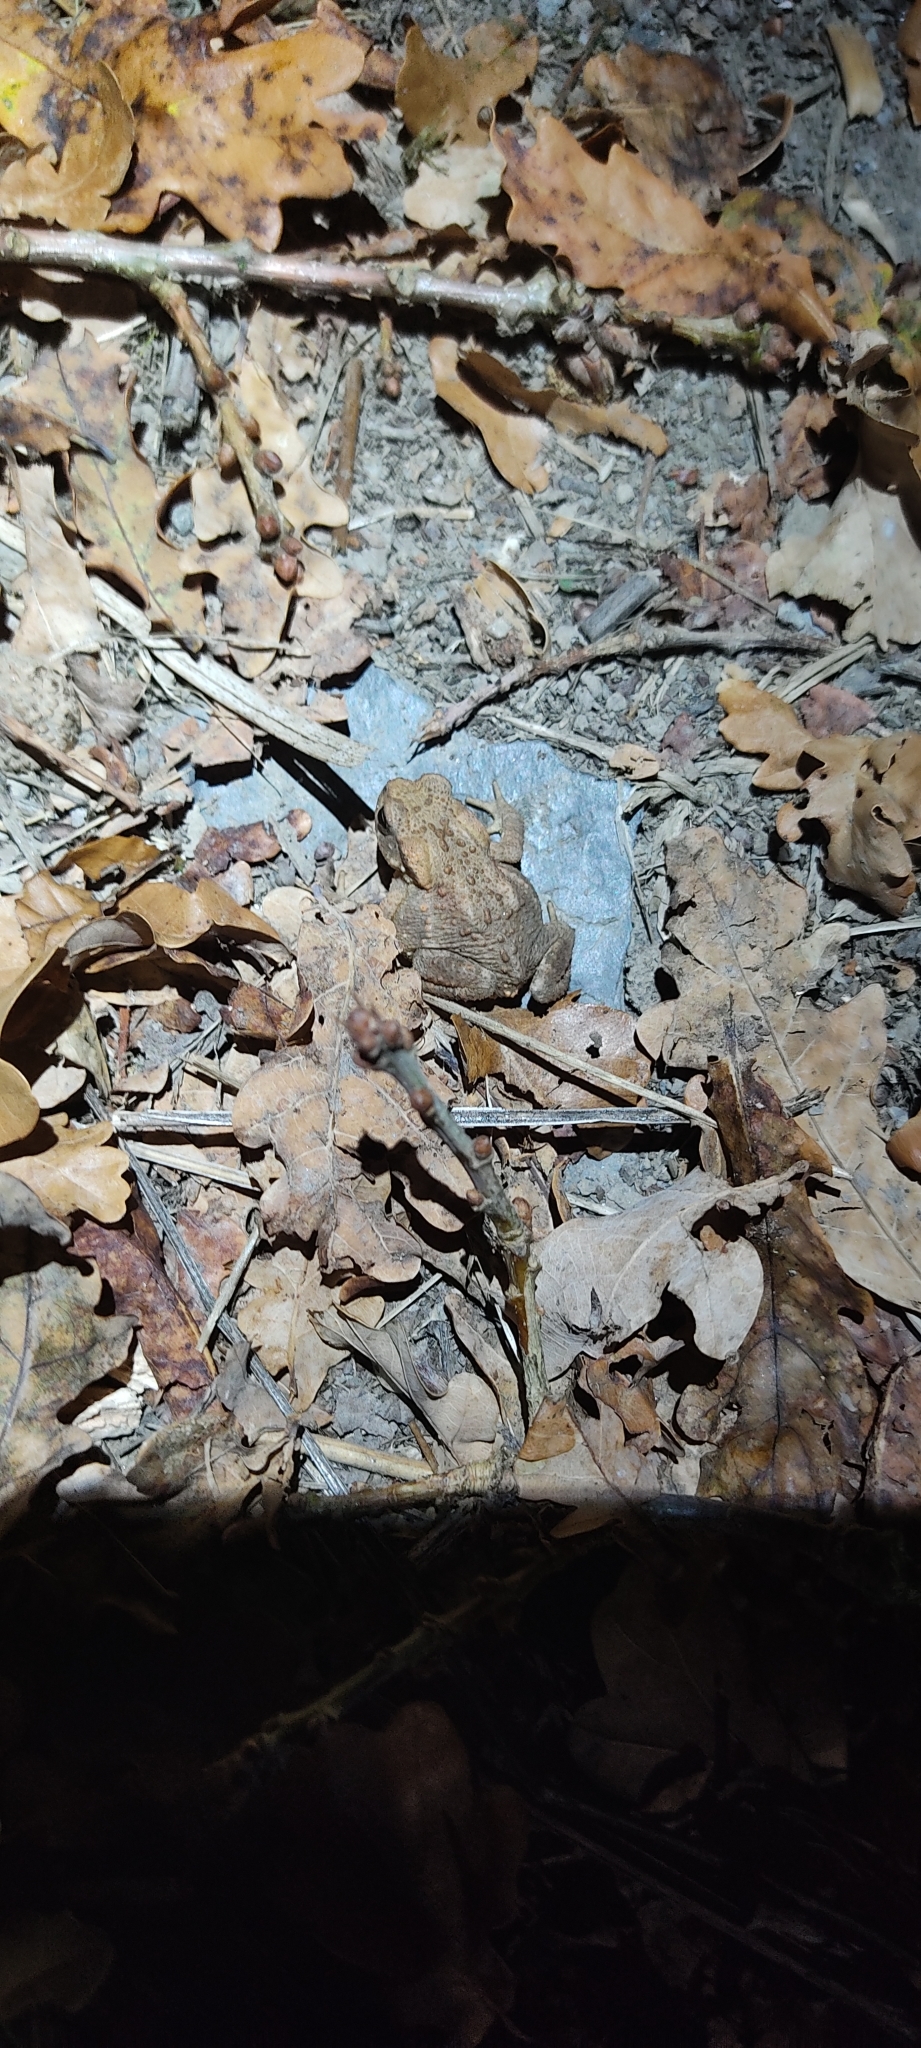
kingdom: Animalia
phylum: Chordata
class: Amphibia
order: Anura
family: Bufonidae
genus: Bufo
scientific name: Bufo spinosus
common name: Western common toad
